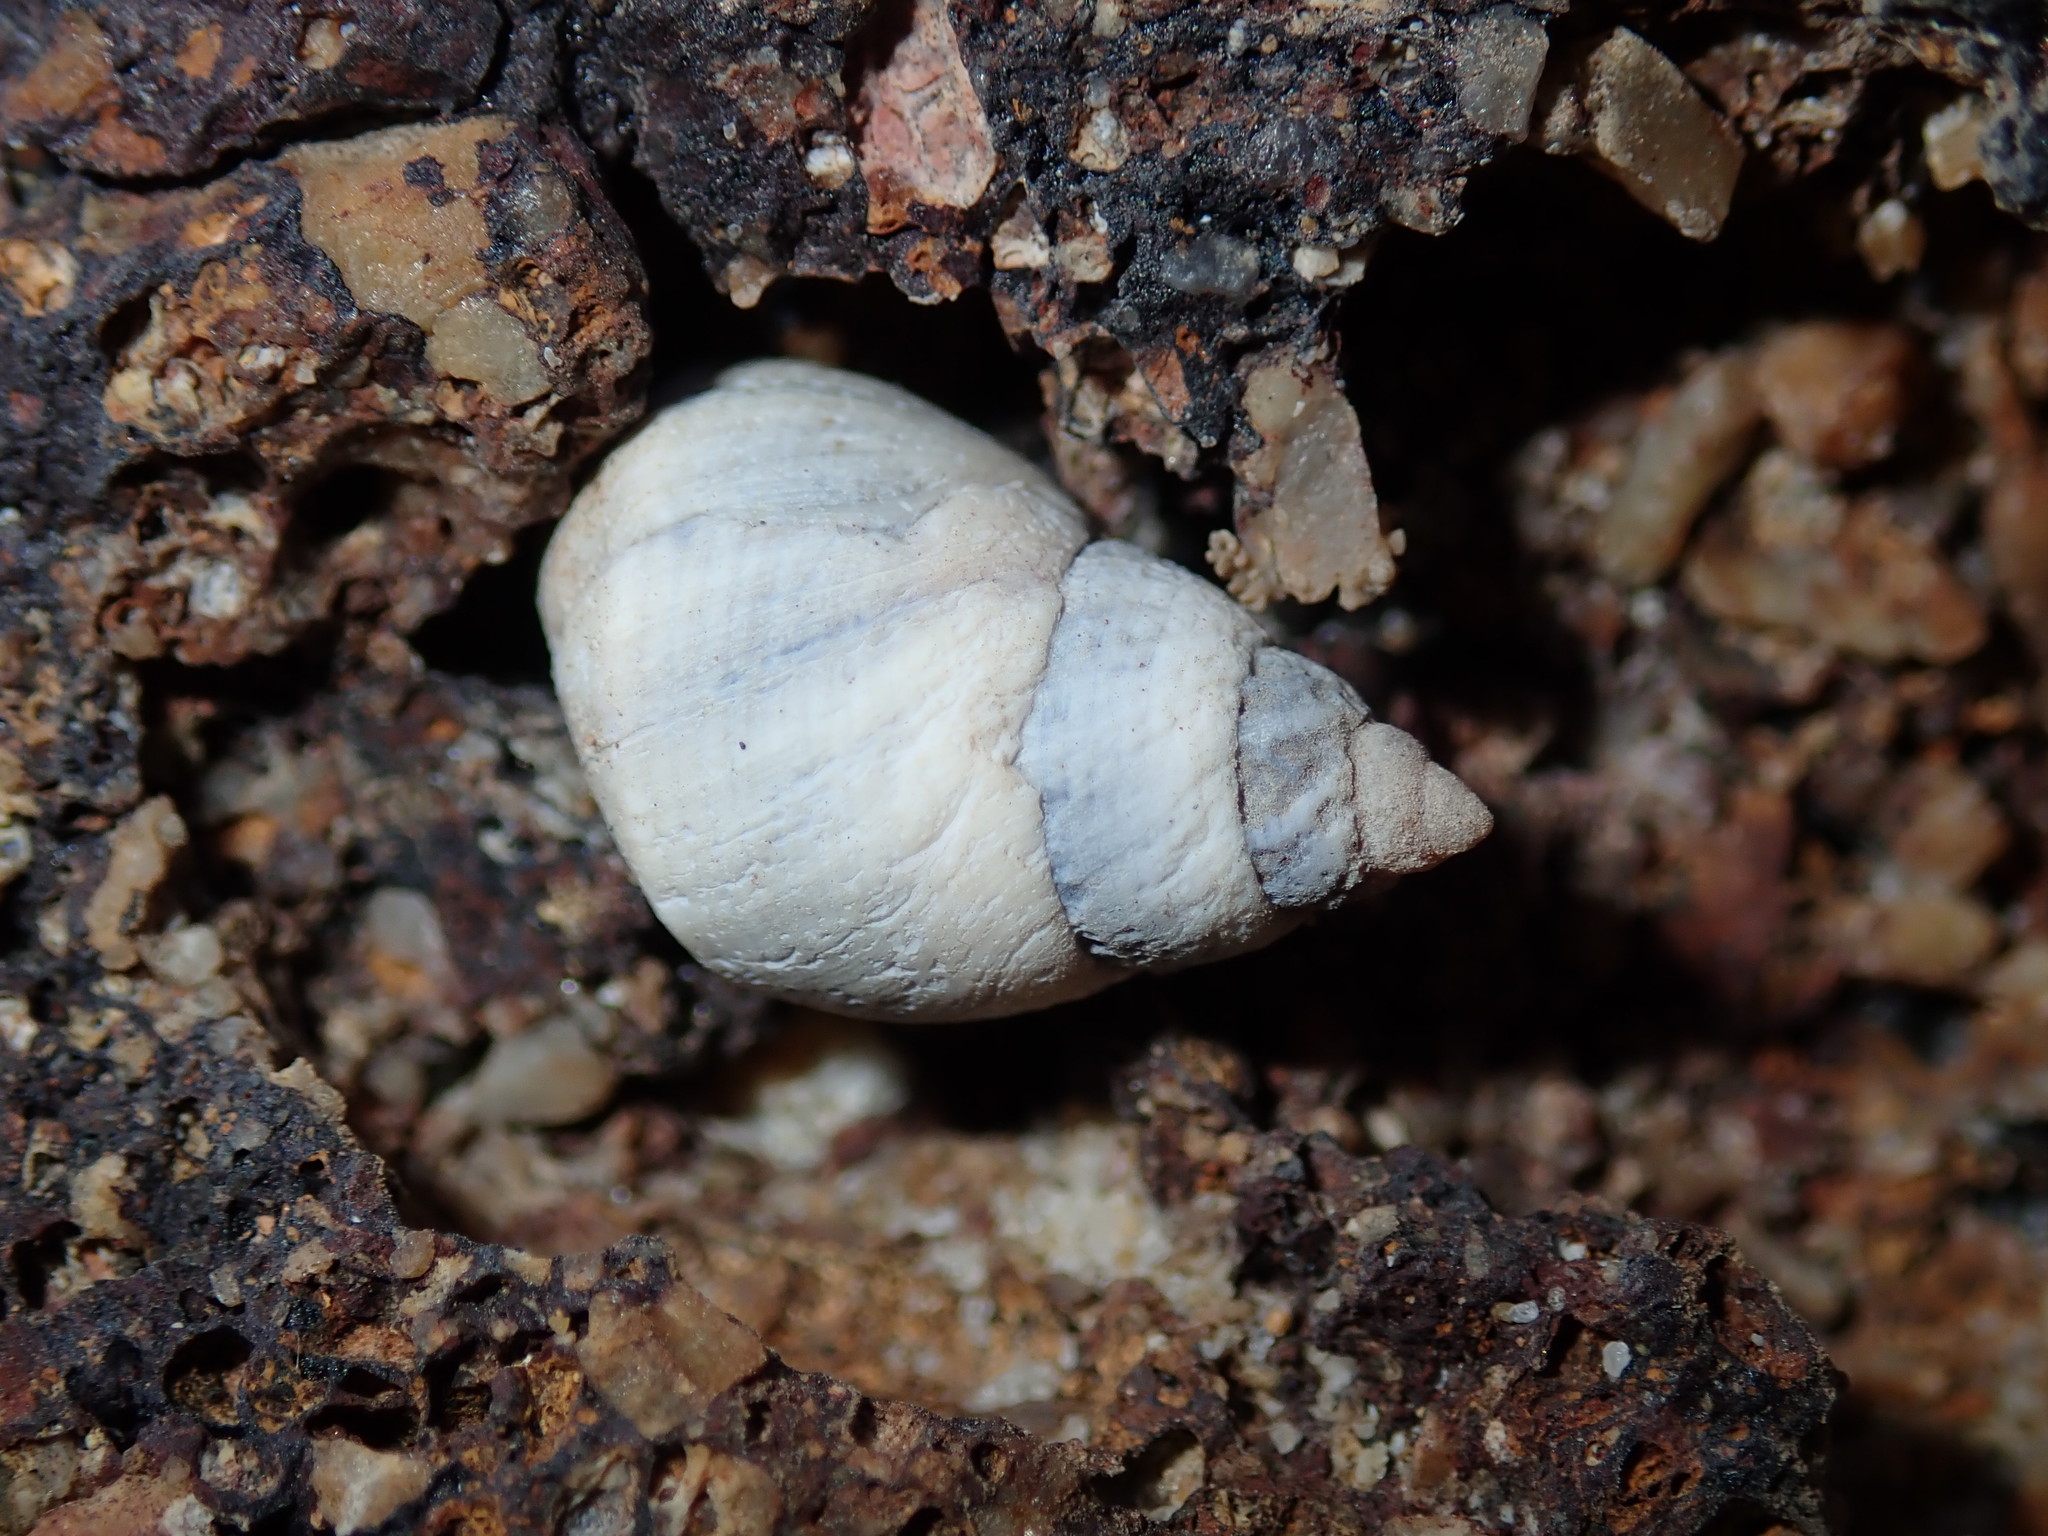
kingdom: Animalia
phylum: Mollusca
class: Gastropoda
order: Littorinimorpha
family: Littorinidae
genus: Austrolittorina
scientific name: Austrolittorina unifasciata
